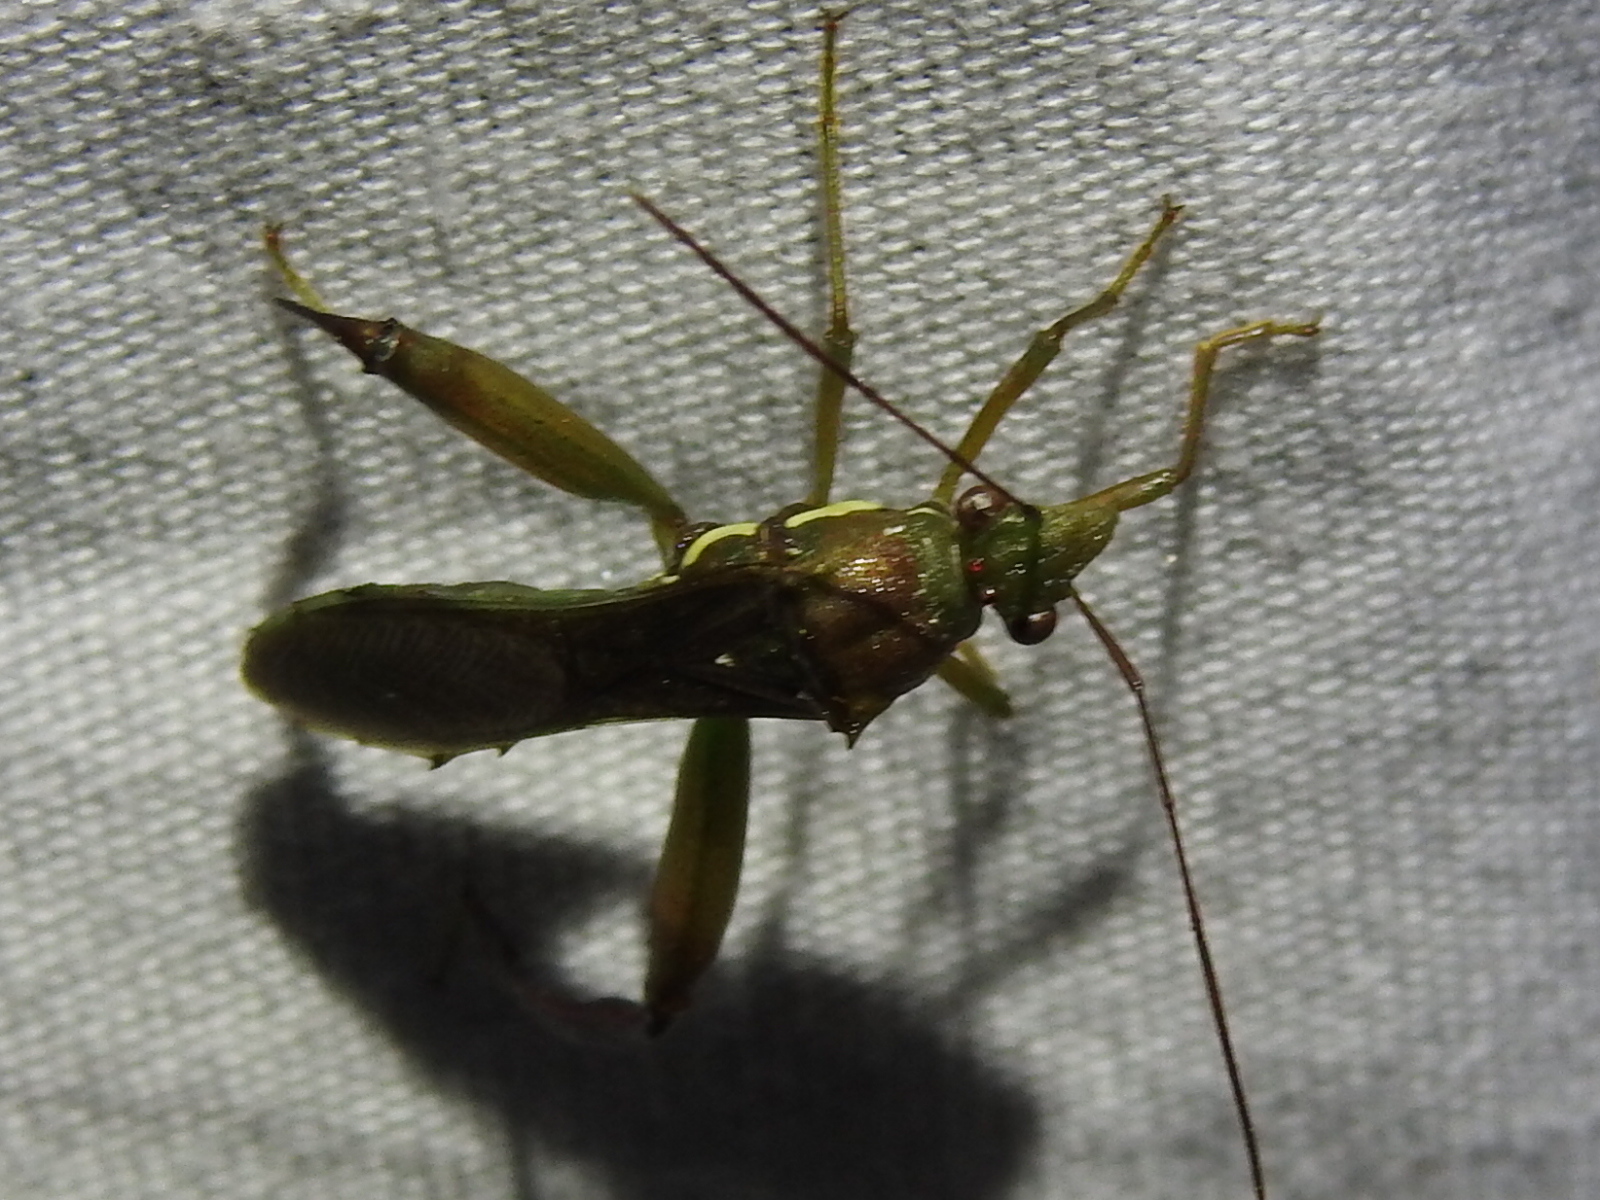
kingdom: Animalia
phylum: Arthropoda
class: Insecta
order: Hemiptera
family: Alydidae
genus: Hyalymenus
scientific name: Hyalymenus tarsatus
